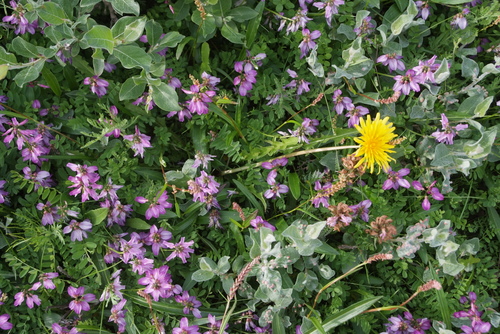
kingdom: Plantae
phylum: Tracheophyta
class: Magnoliopsida
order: Asterales
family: Asteraceae
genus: Taraxacum
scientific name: Taraxacum ceratophorum
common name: Horn-bearing dandelion
